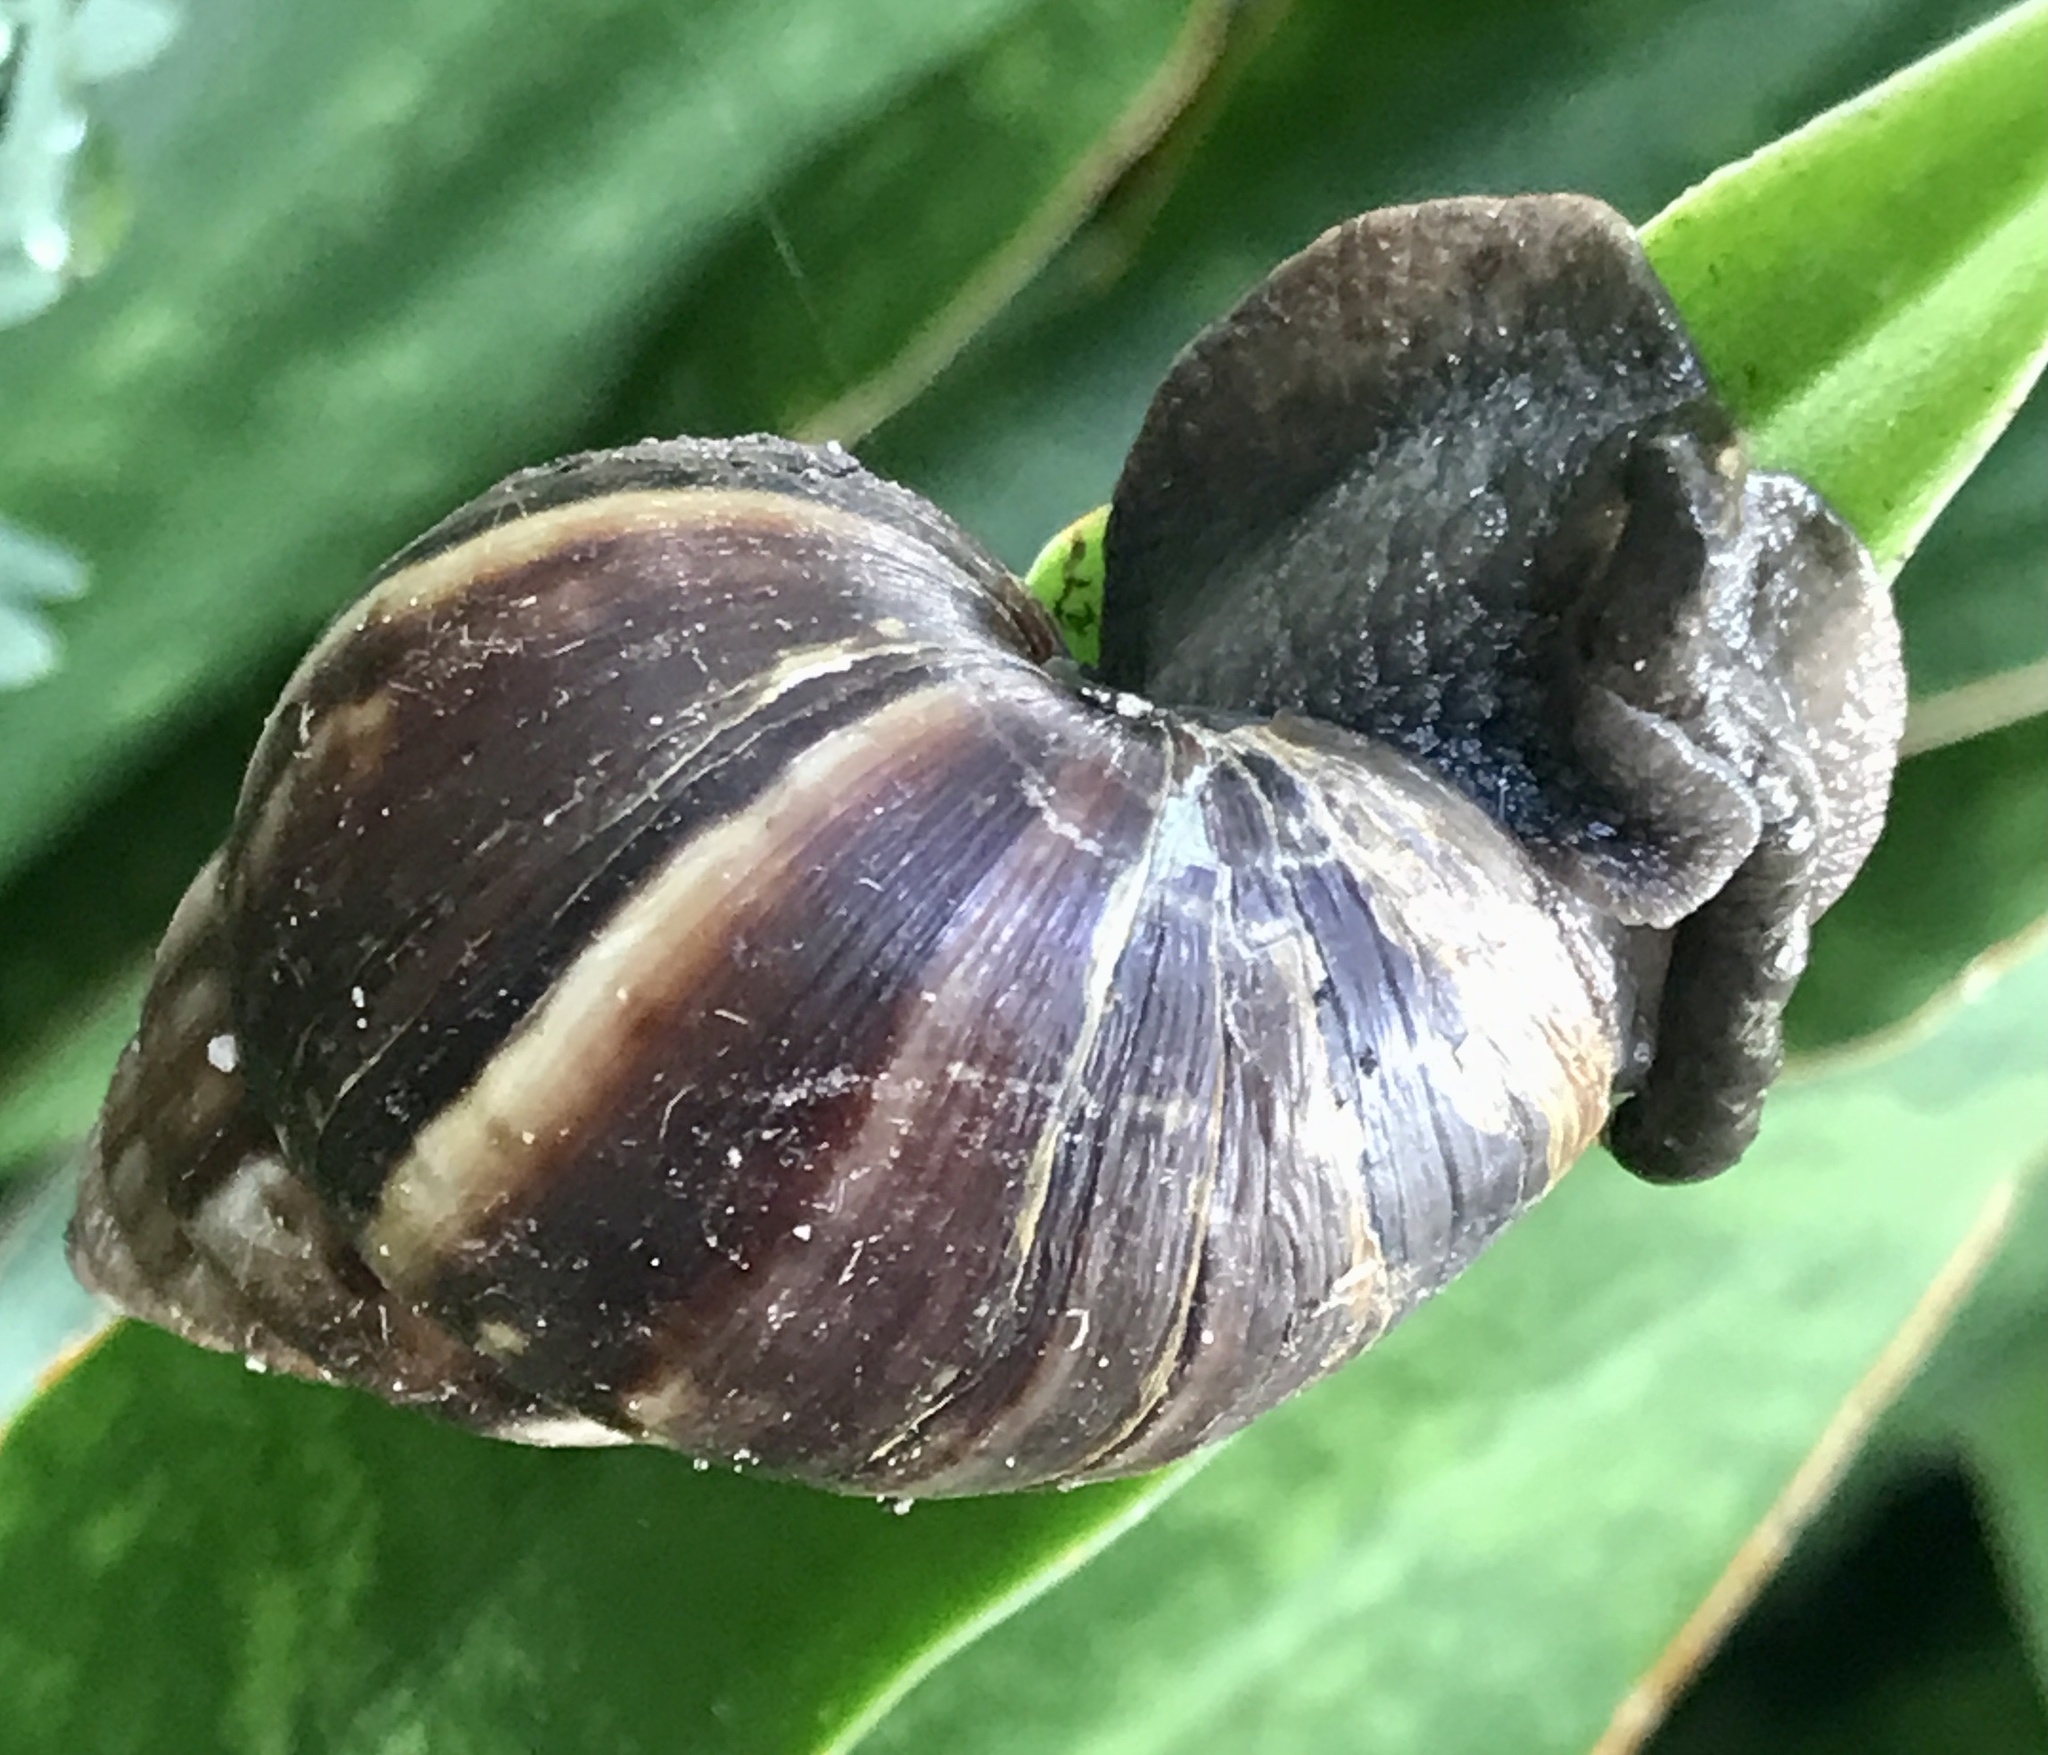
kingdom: Animalia
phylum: Mollusca
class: Gastropoda
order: Stylommatophora
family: Achatinidae
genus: Lissachatina
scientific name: Lissachatina fulica
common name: Giant african snail
